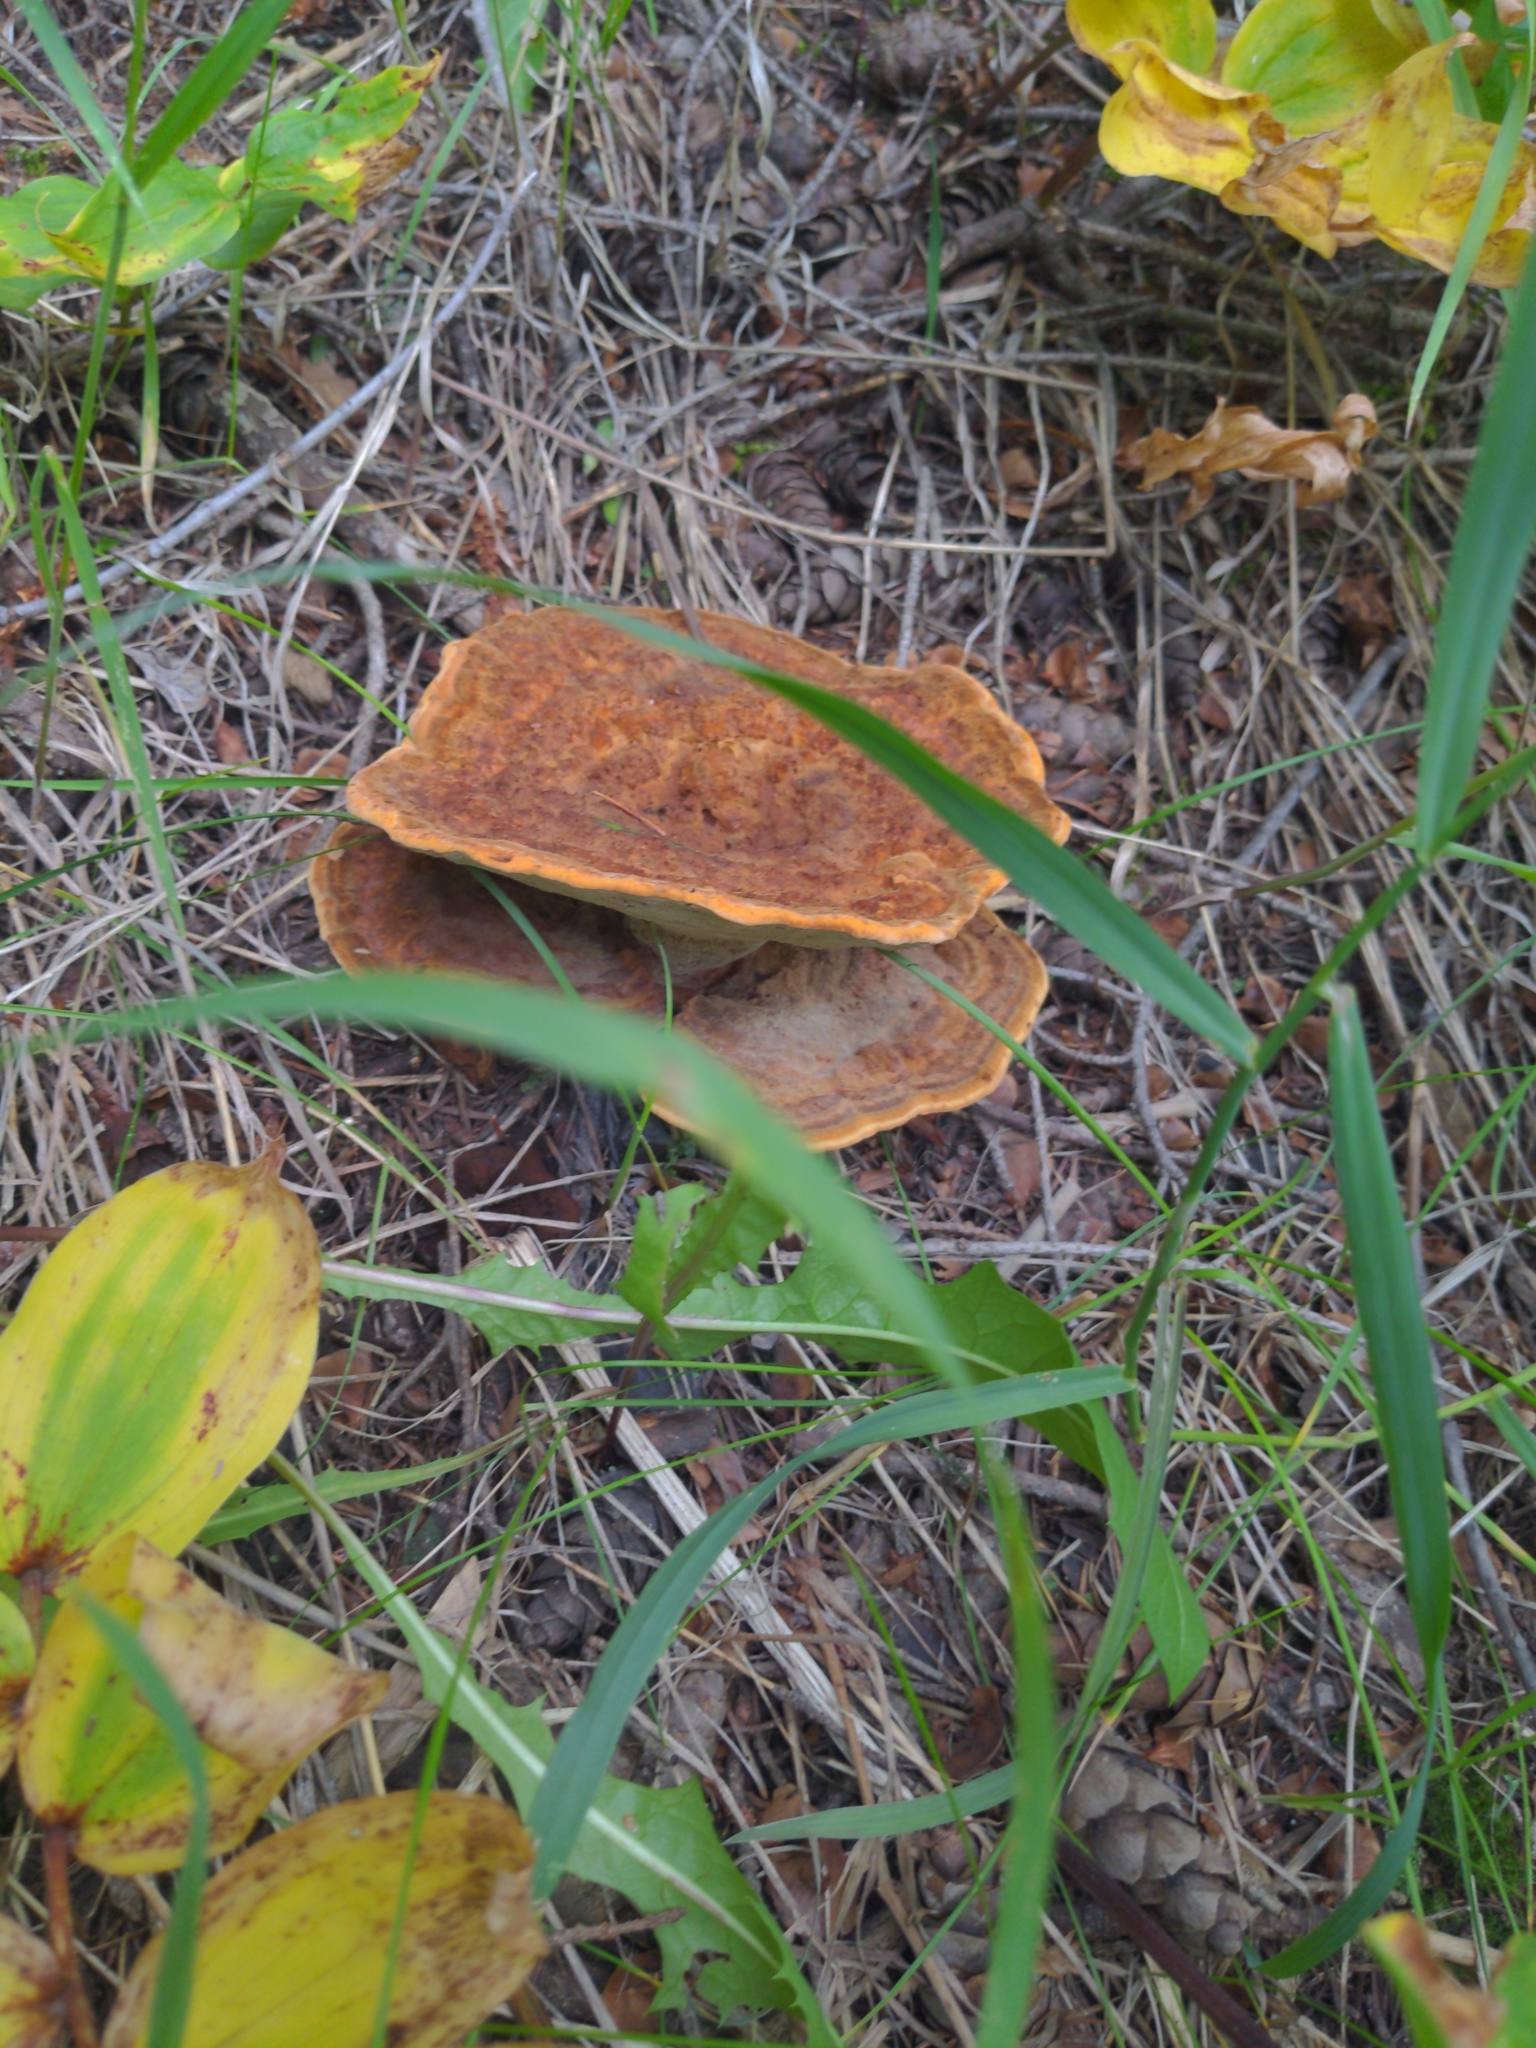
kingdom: Fungi
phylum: Basidiomycota
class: Agaricomycetes
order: Polyporales
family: Laetiporaceae
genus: Phaeolus
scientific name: Phaeolus schweinitzii
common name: Dyer's mazegill
